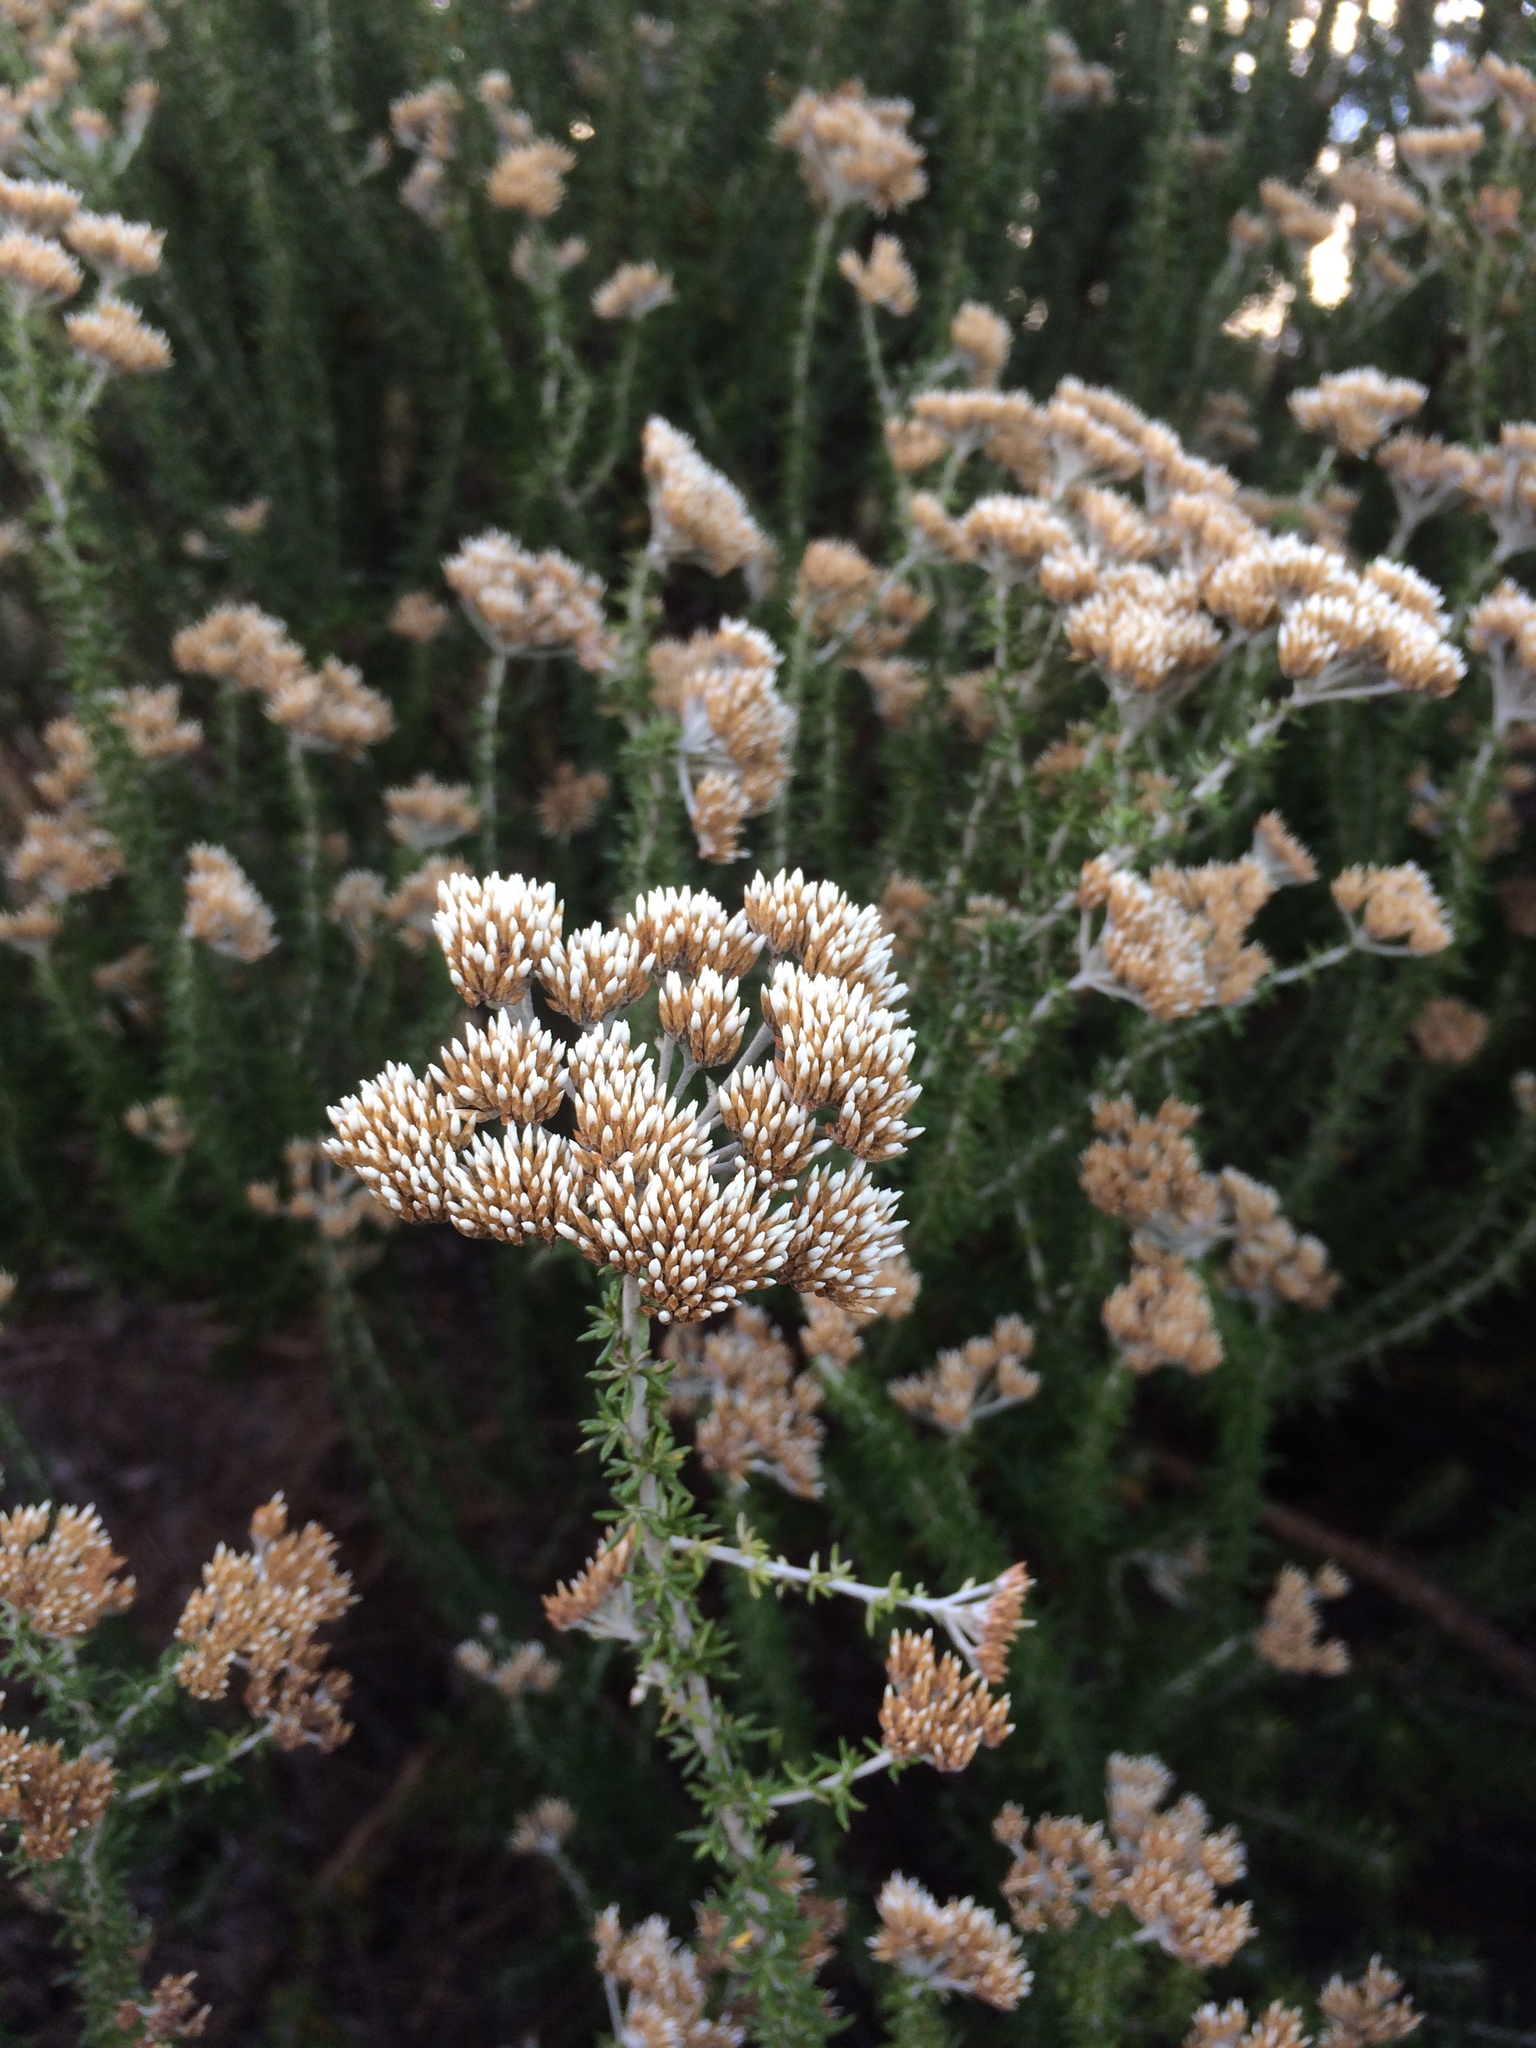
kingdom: Plantae
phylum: Tracheophyta
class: Magnoliopsida
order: Asterales
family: Asteraceae
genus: Metalasia
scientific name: Metalasia densa
